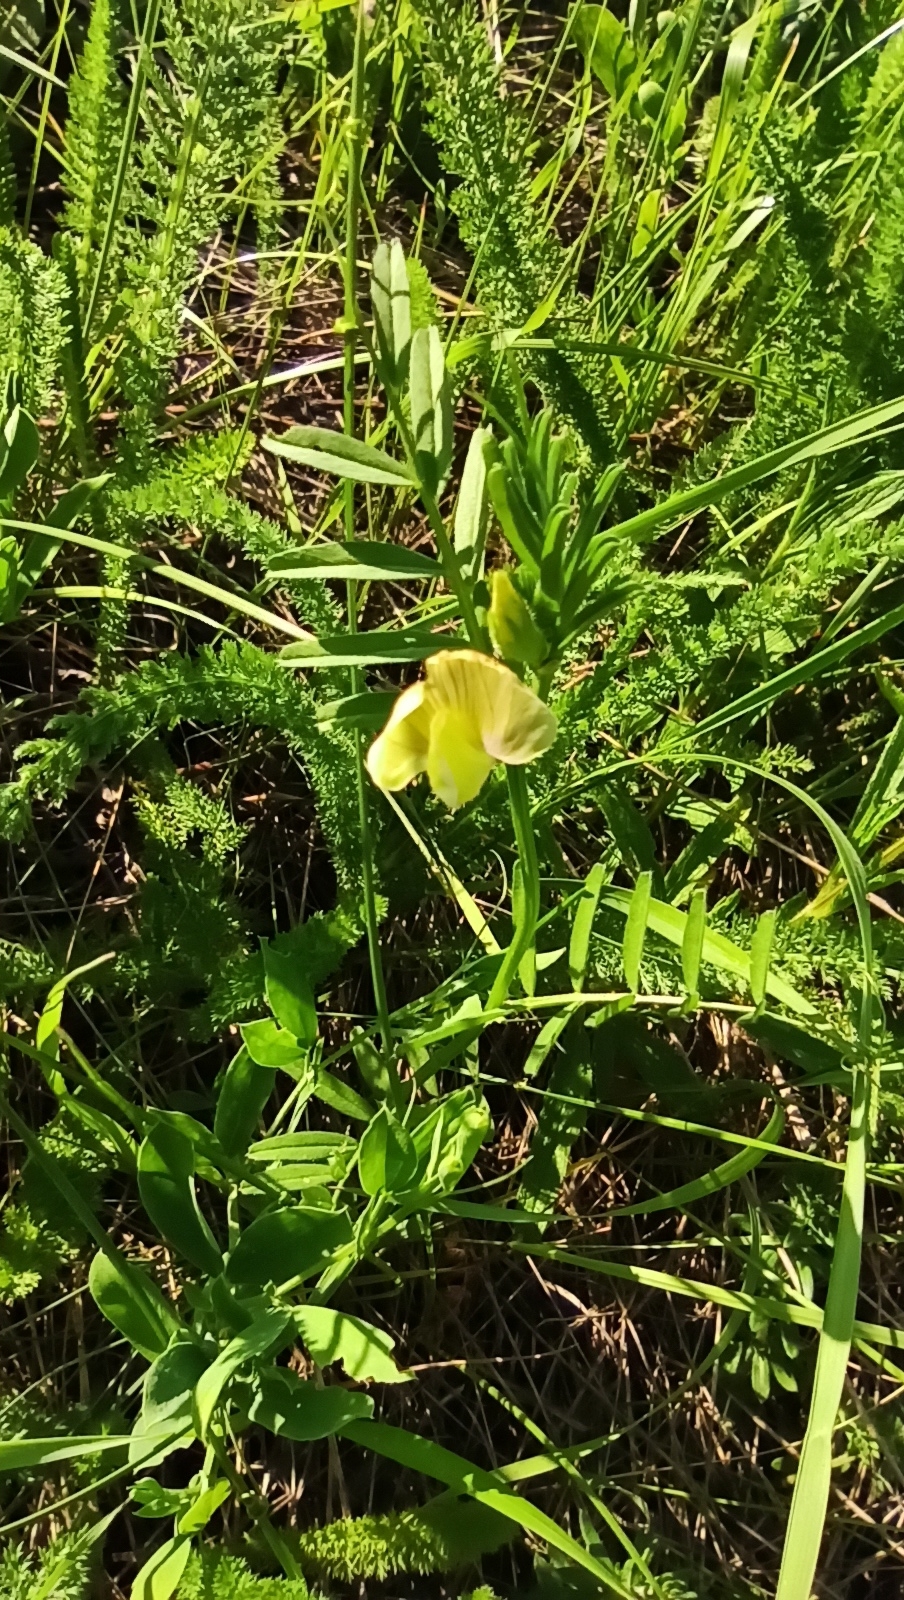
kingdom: Plantae
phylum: Tracheophyta
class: Magnoliopsida
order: Fabales
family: Fabaceae
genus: Vicia
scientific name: Vicia grandiflora
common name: Large yellow vetch
